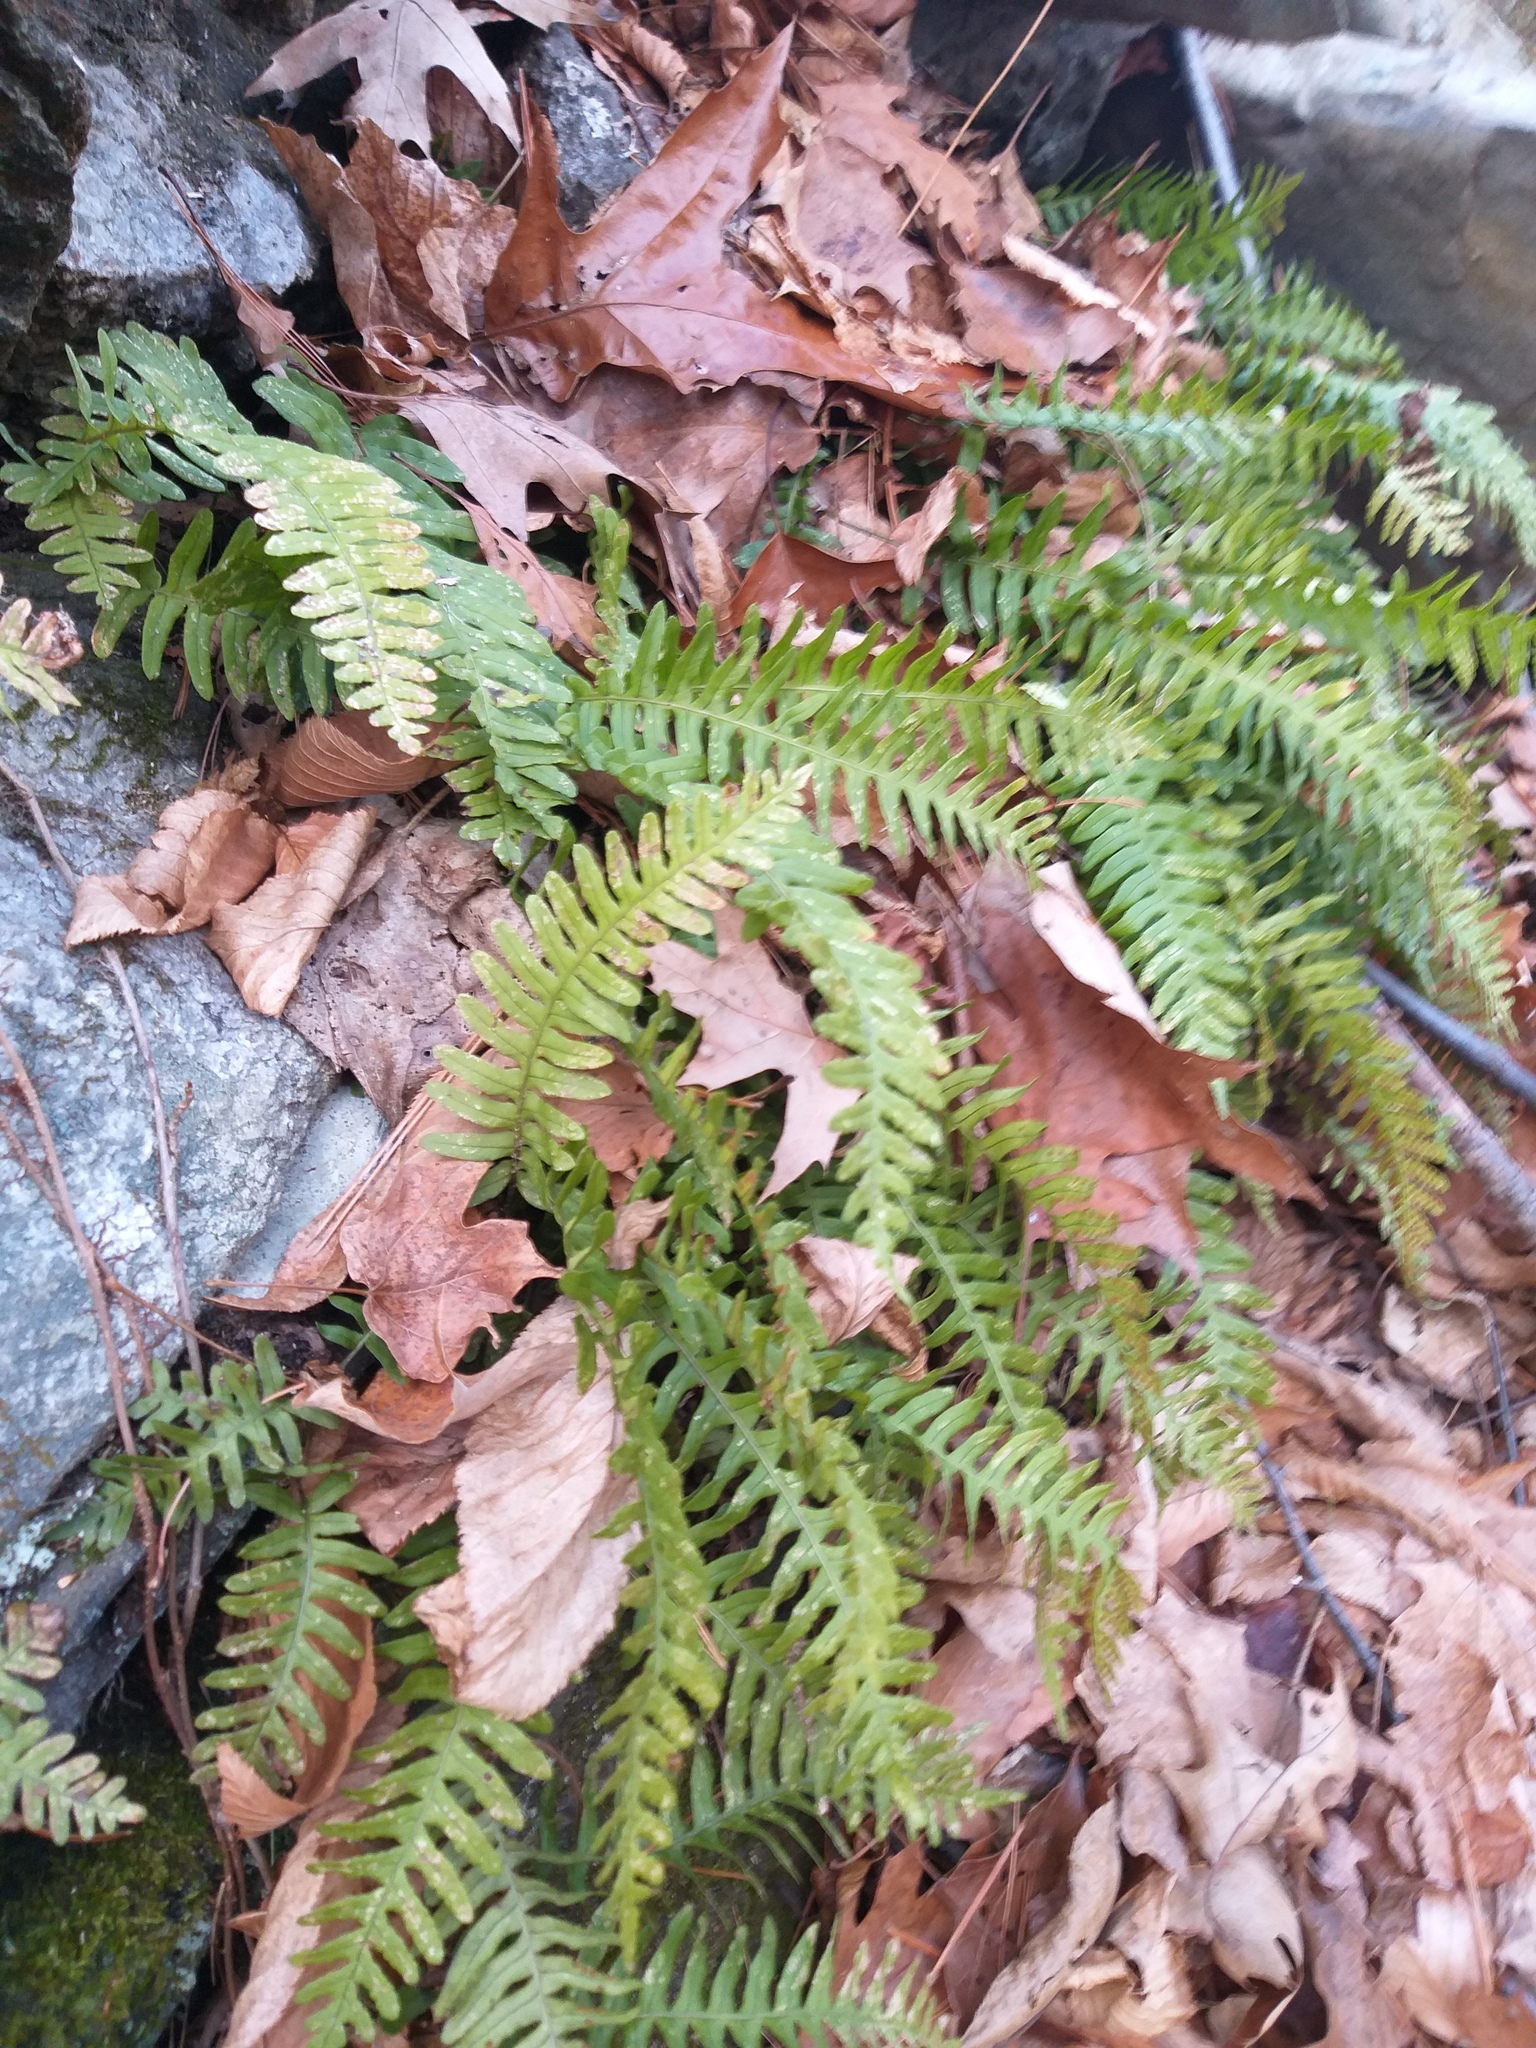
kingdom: Plantae
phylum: Tracheophyta
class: Polypodiopsida
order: Polypodiales
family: Polypodiaceae
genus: Polypodium
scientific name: Polypodium virginianum
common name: American wall fern
